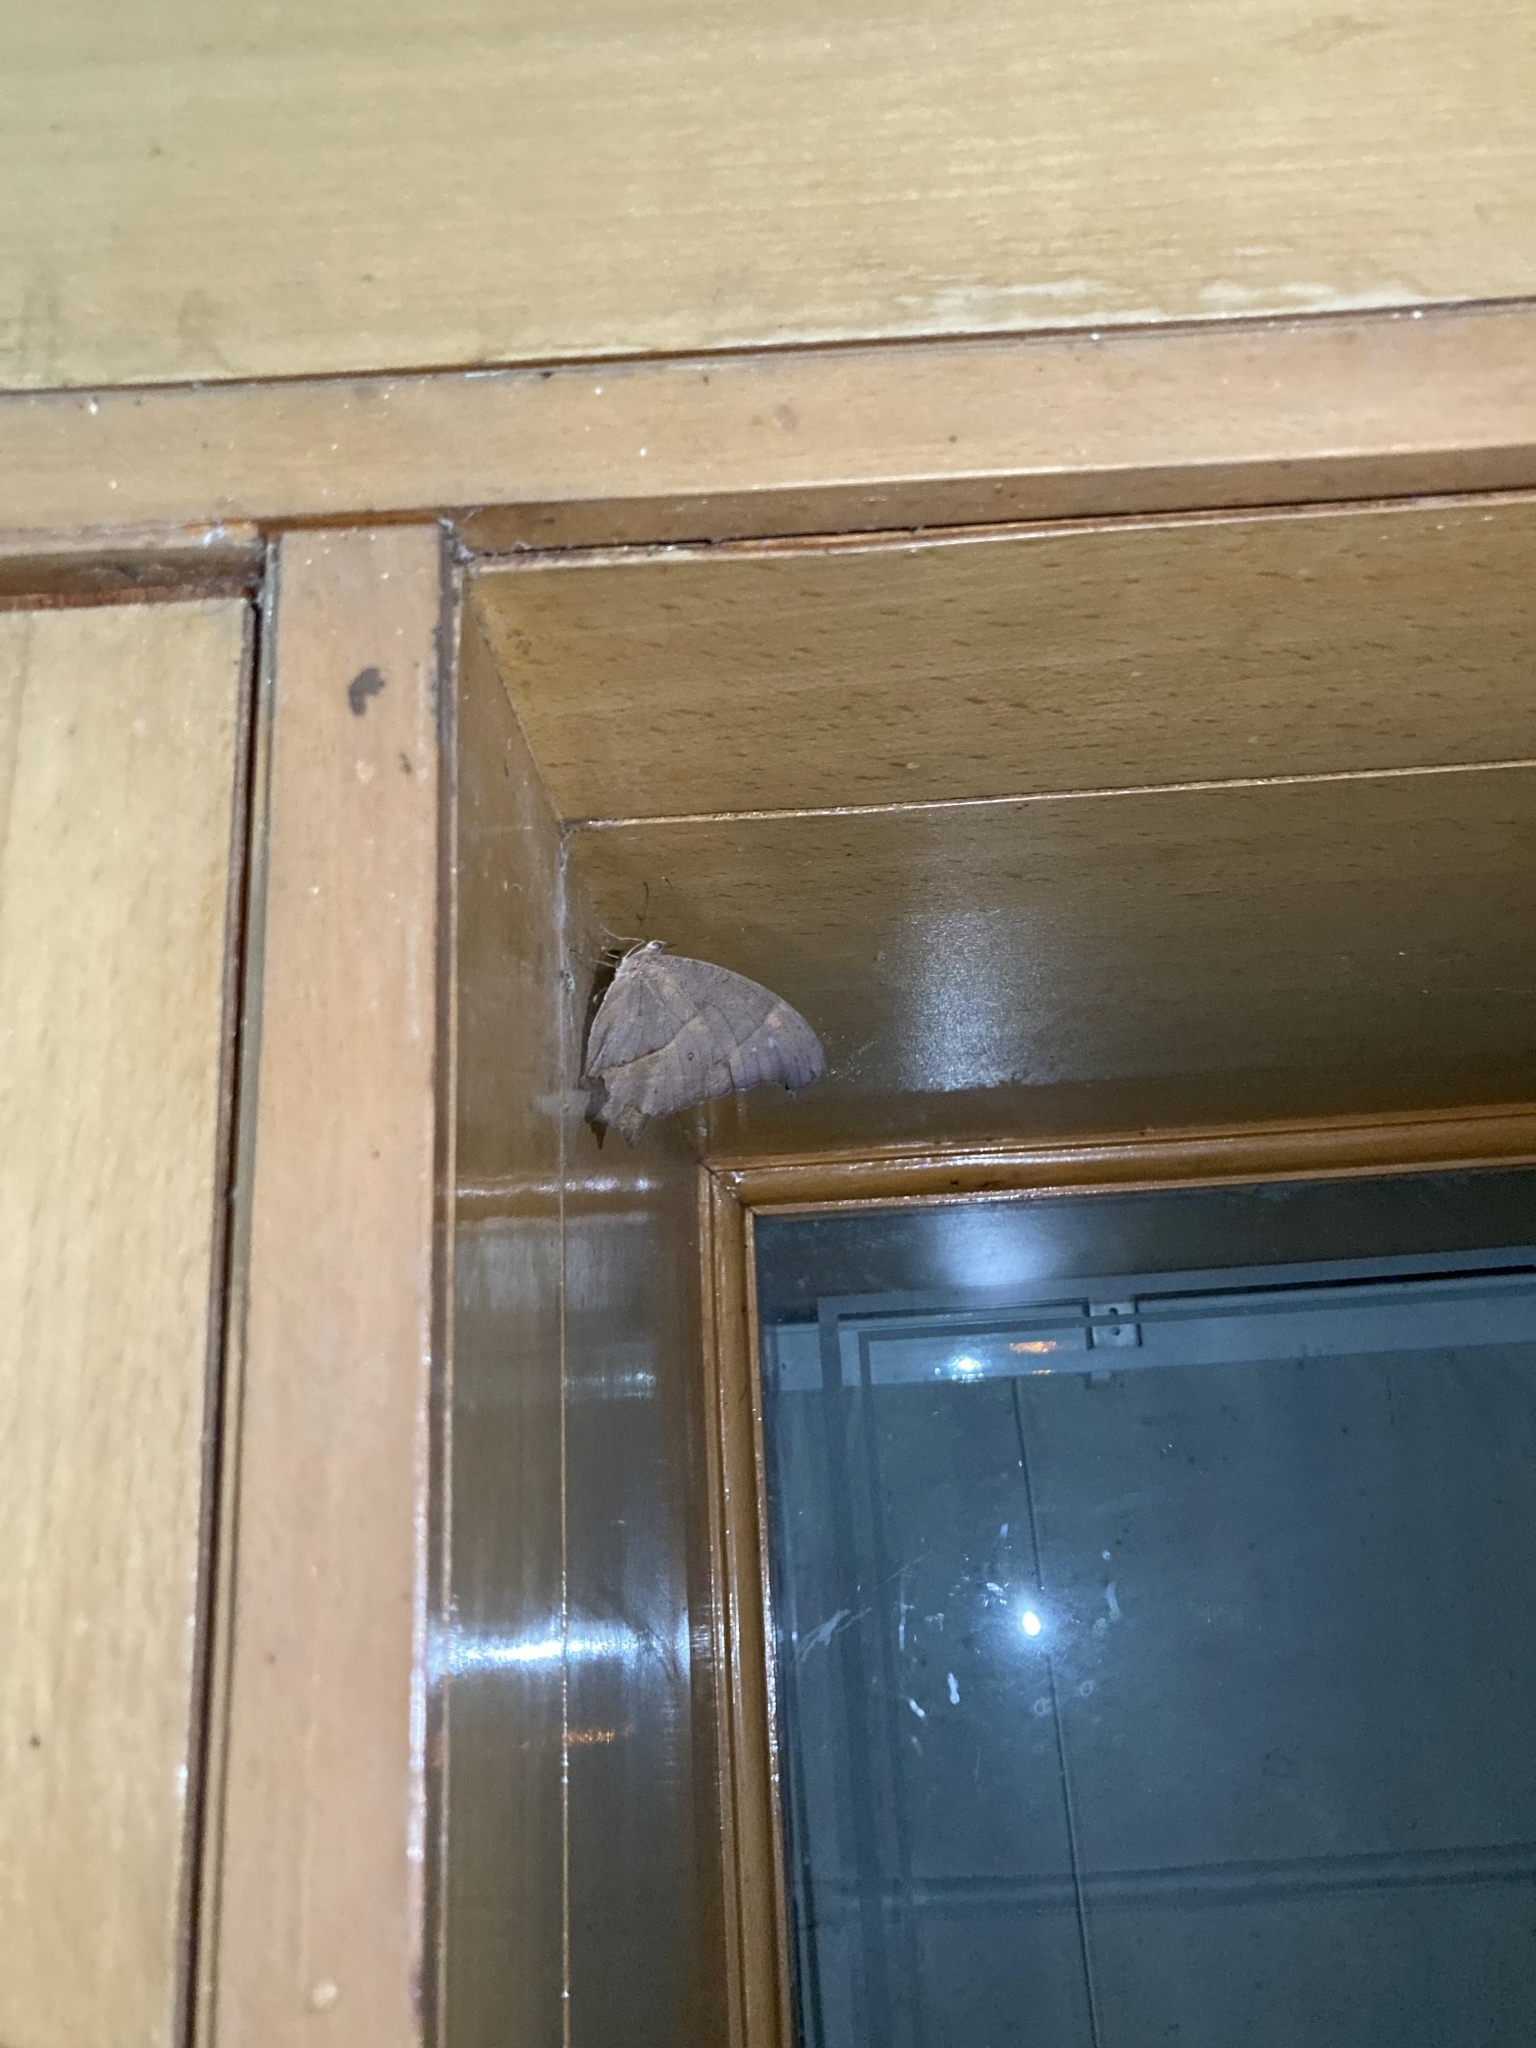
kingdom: Animalia
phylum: Arthropoda
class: Insecta
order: Lepidoptera
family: Nymphalidae
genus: Melanitis
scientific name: Melanitis leda
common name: Twilight brown
